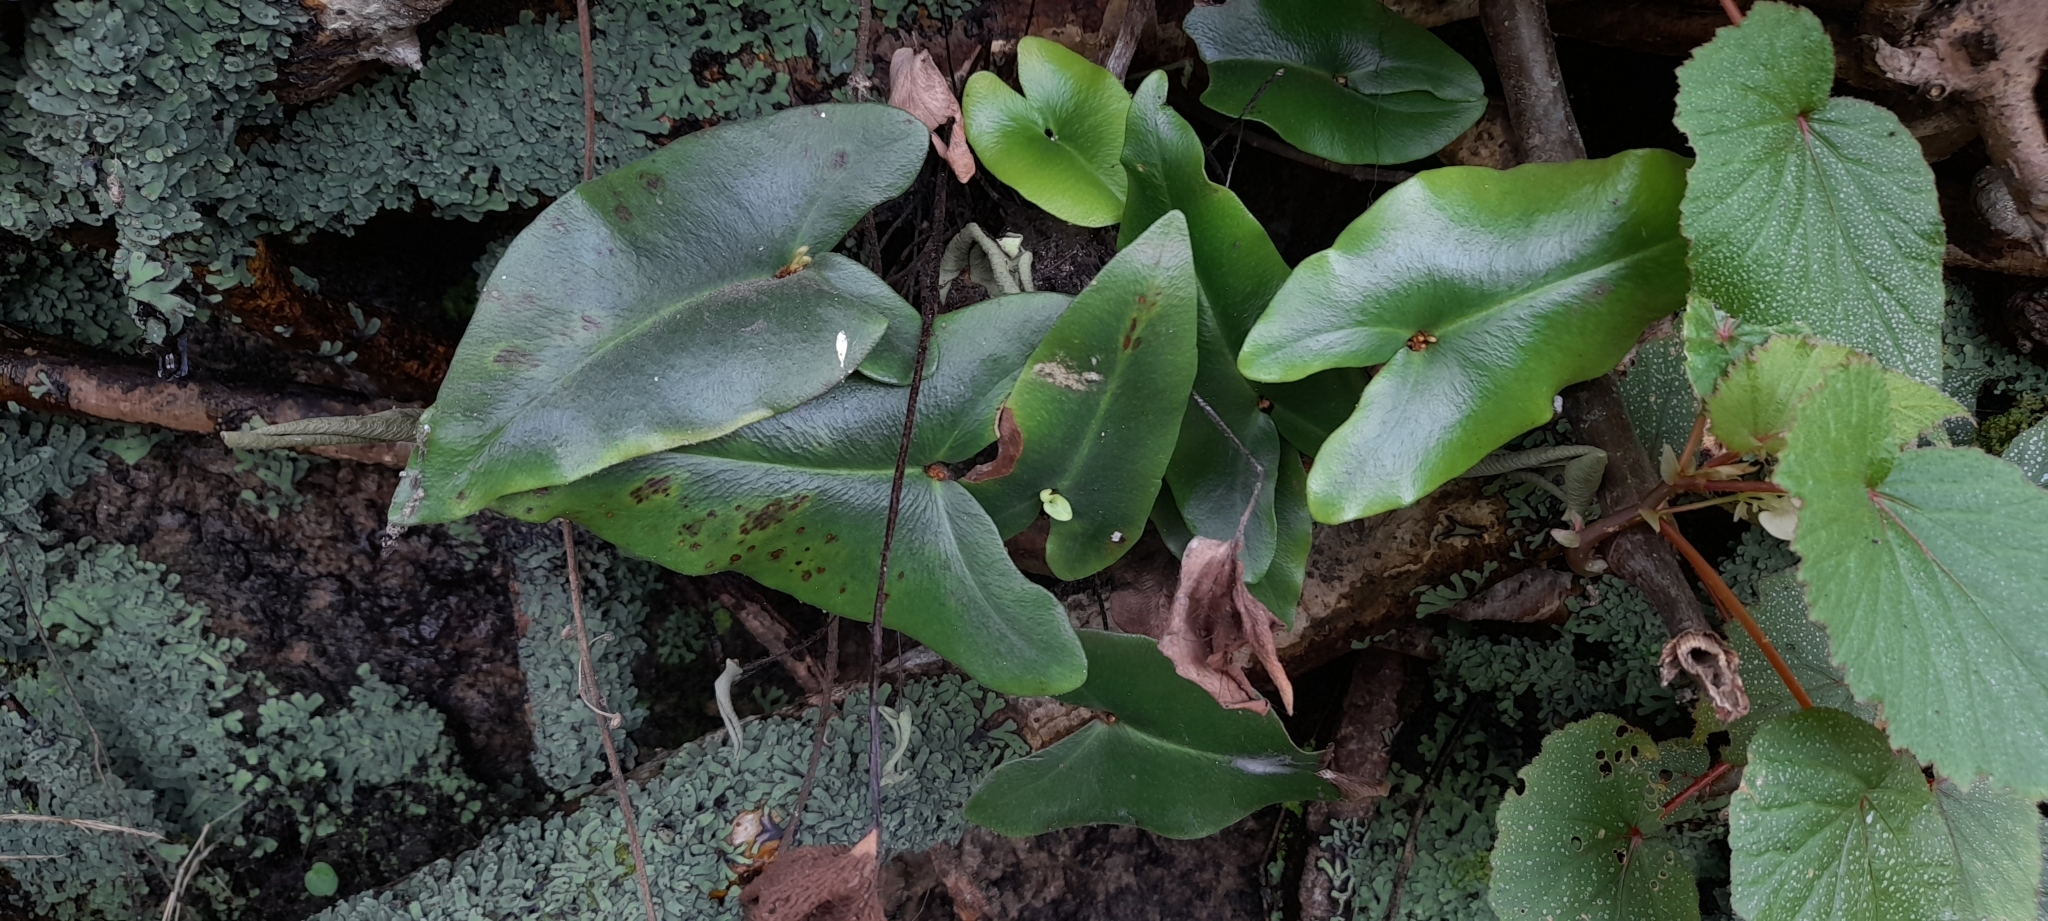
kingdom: Plantae
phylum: Tracheophyta
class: Polypodiopsida
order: Polypodiales
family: Pteridaceae
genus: Mickelopteris
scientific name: Mickelopteris cordata
